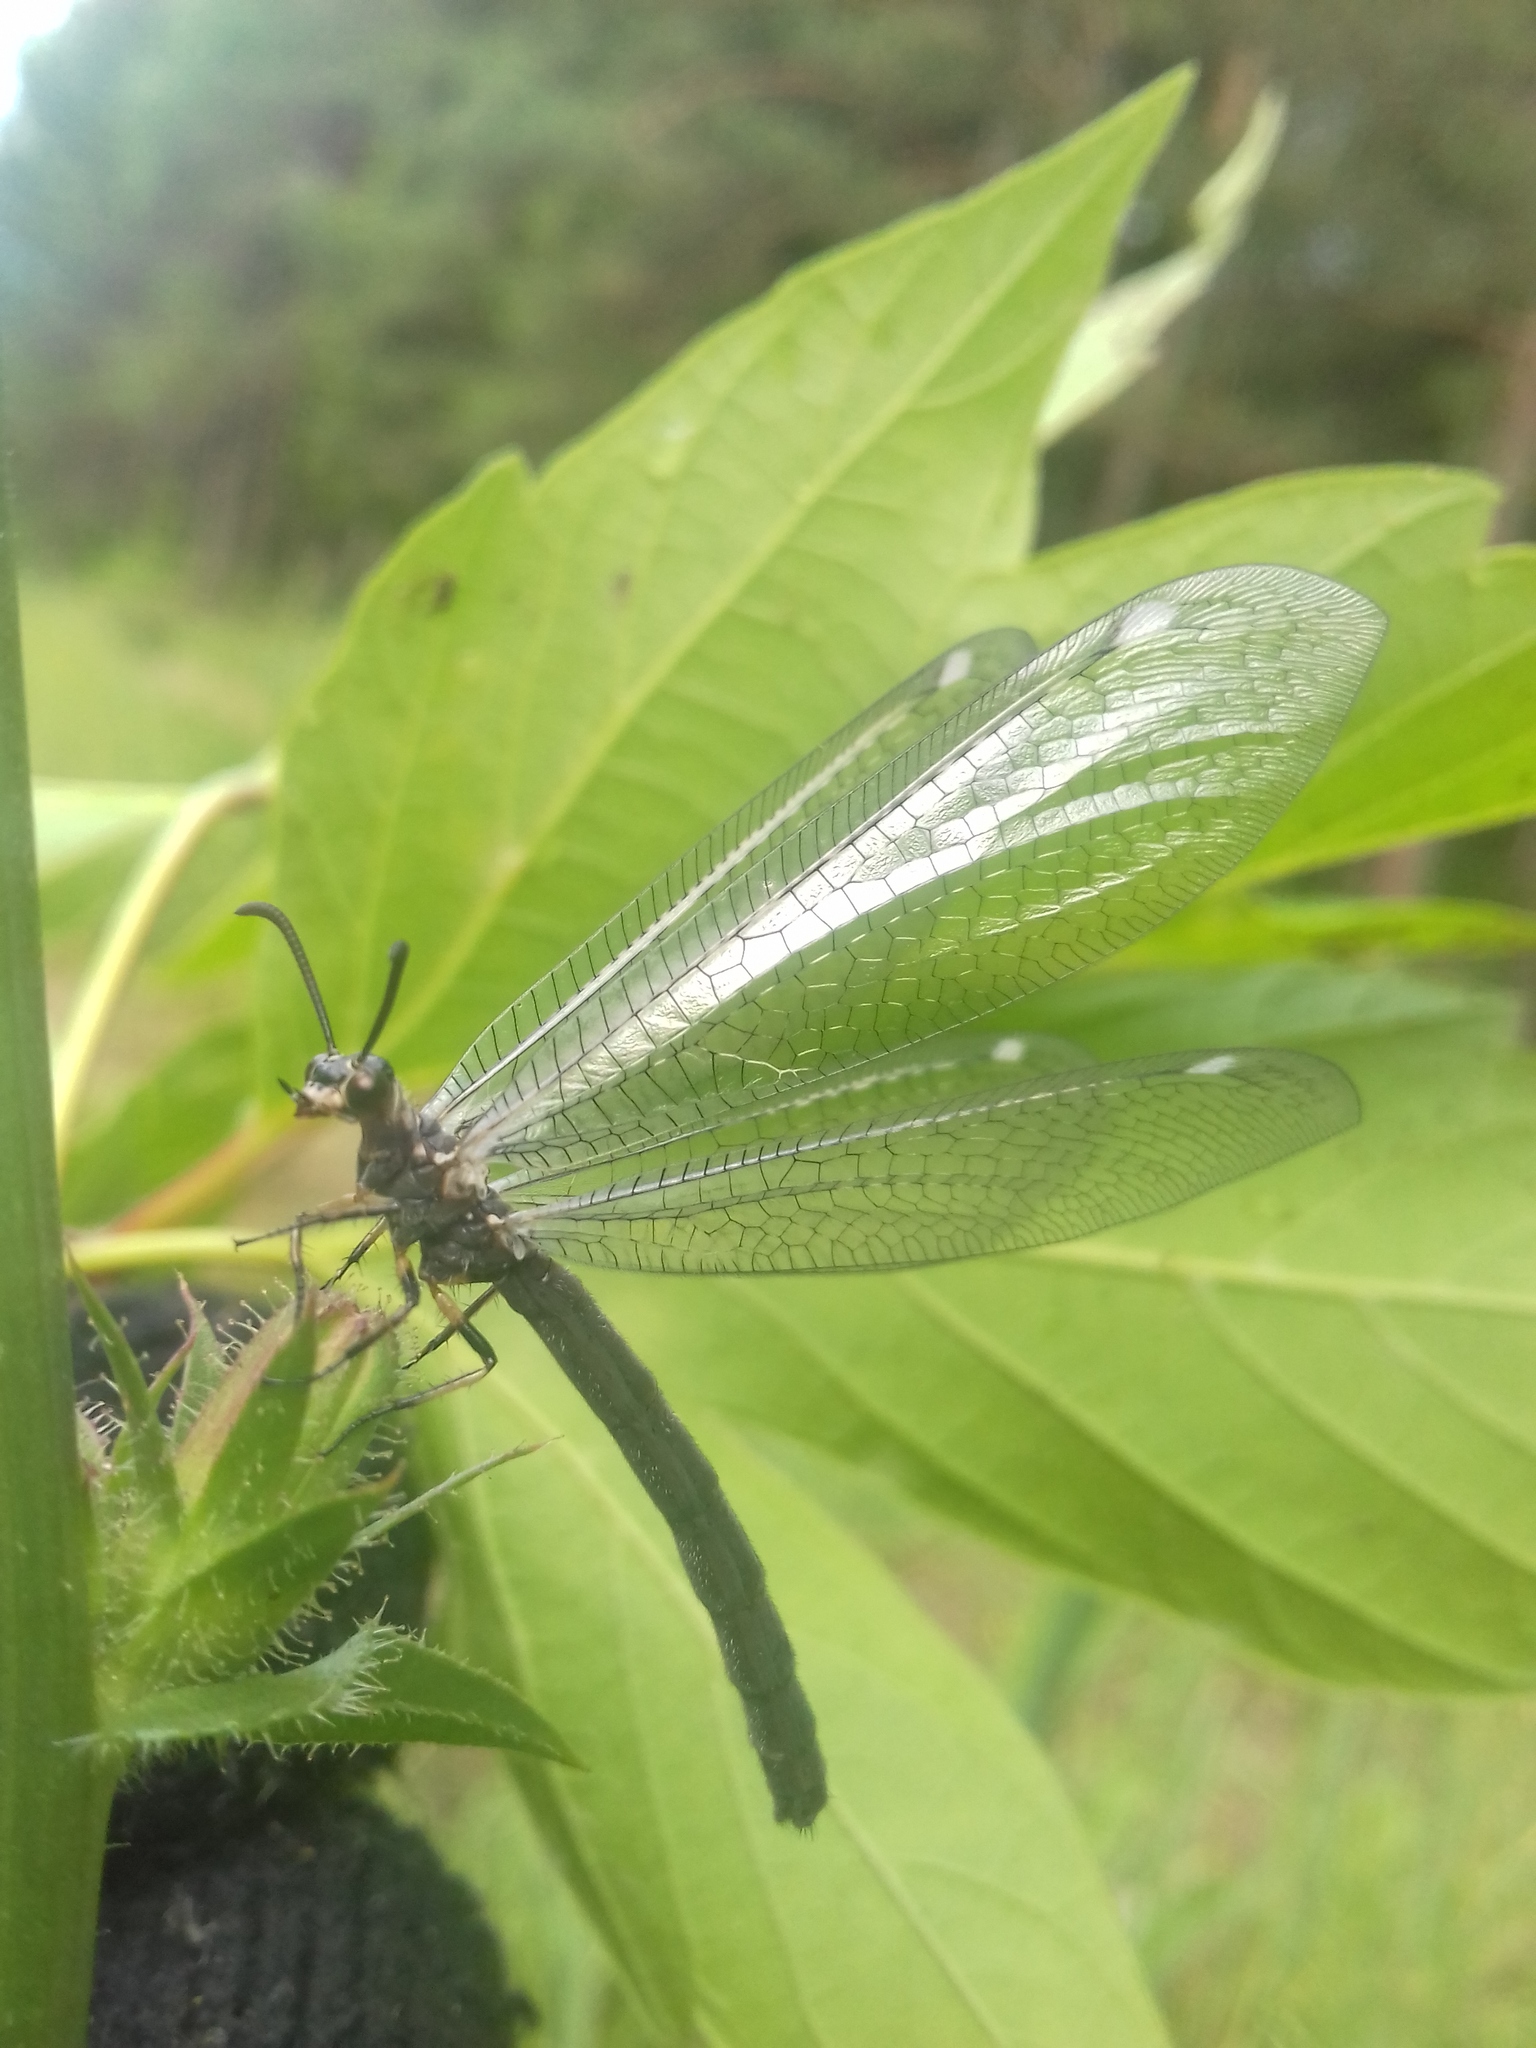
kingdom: Animalia
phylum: Arthropoda
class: Insecta
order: Neuroptera
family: Myrmeleontidae
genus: Myrmeleon
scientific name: Myrmeleon formicarius
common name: Ant-lion
